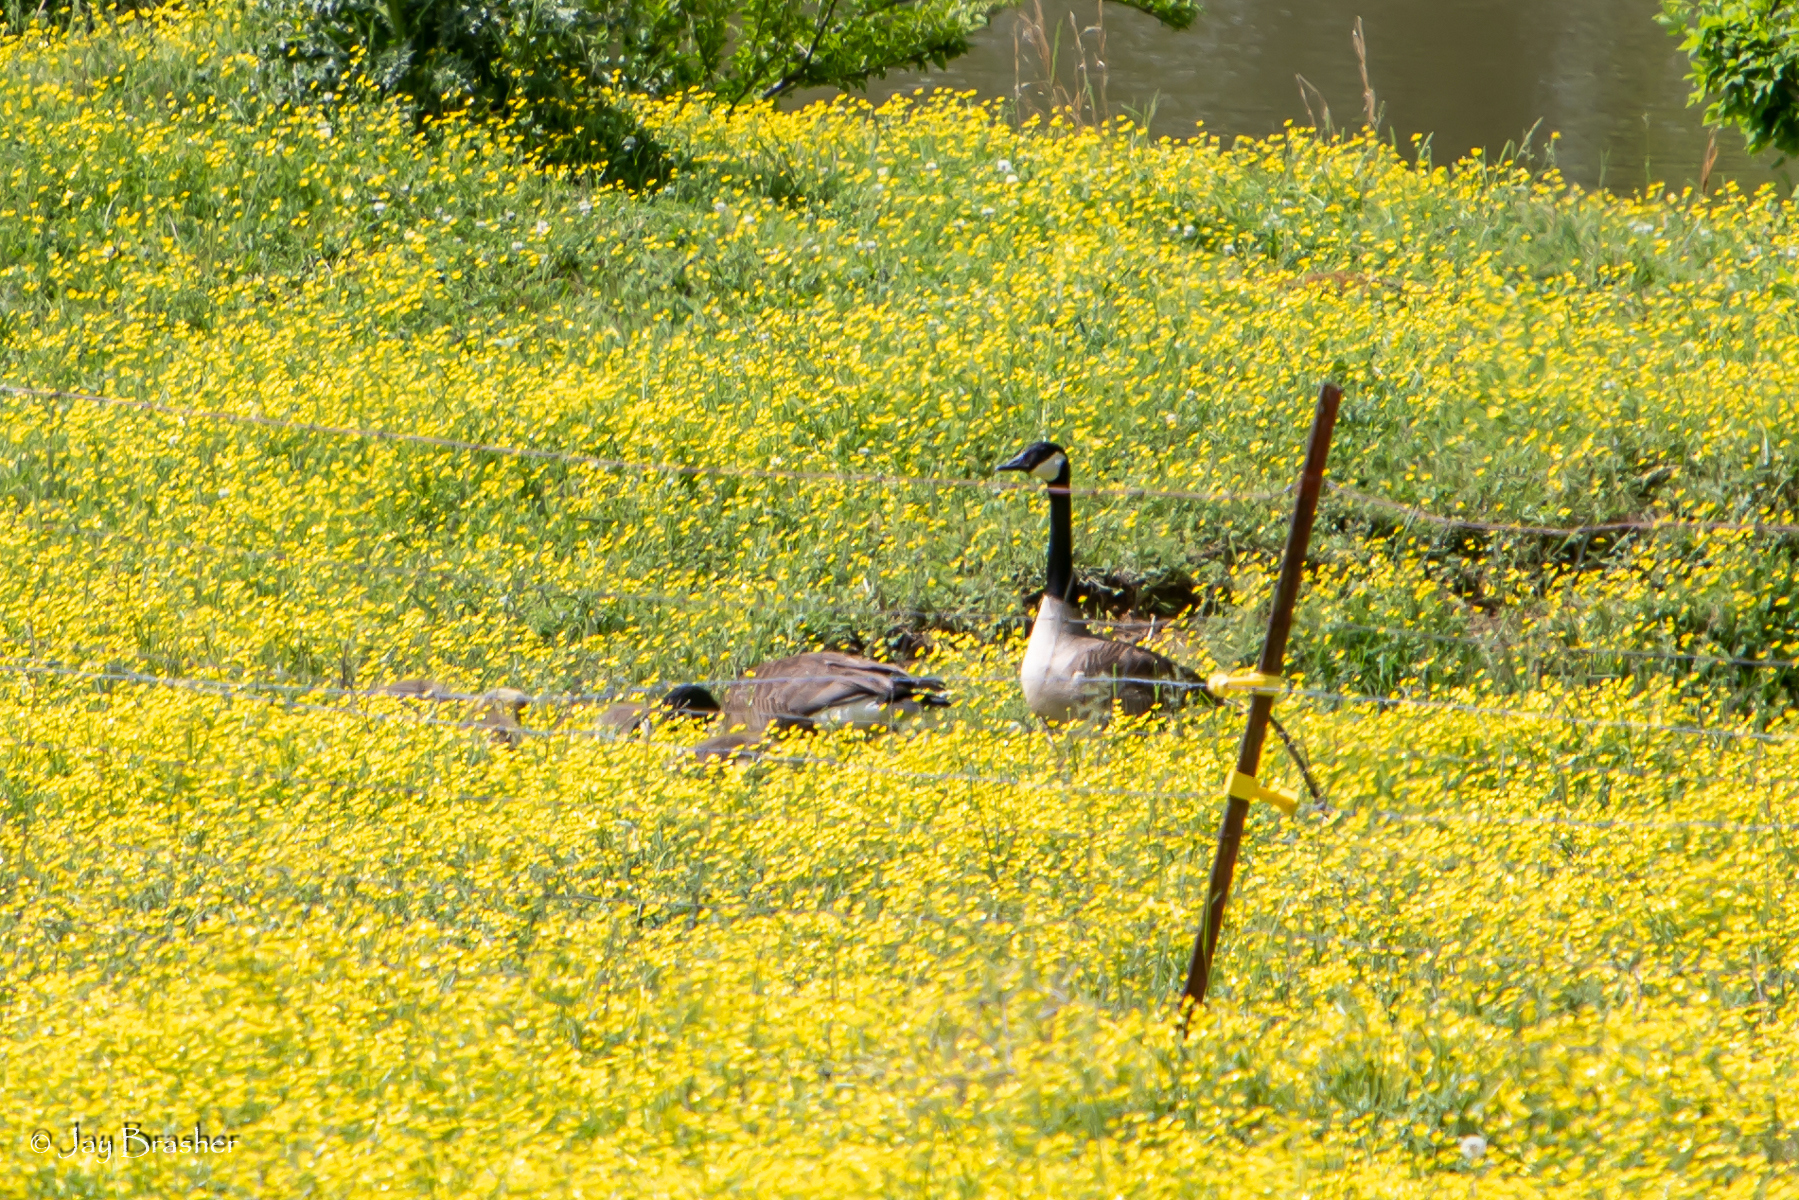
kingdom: Animalia
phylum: Chordata
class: Aves
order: Anseriformes
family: Anatidae
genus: Branta
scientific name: Branta canadensis
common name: Canada goose
